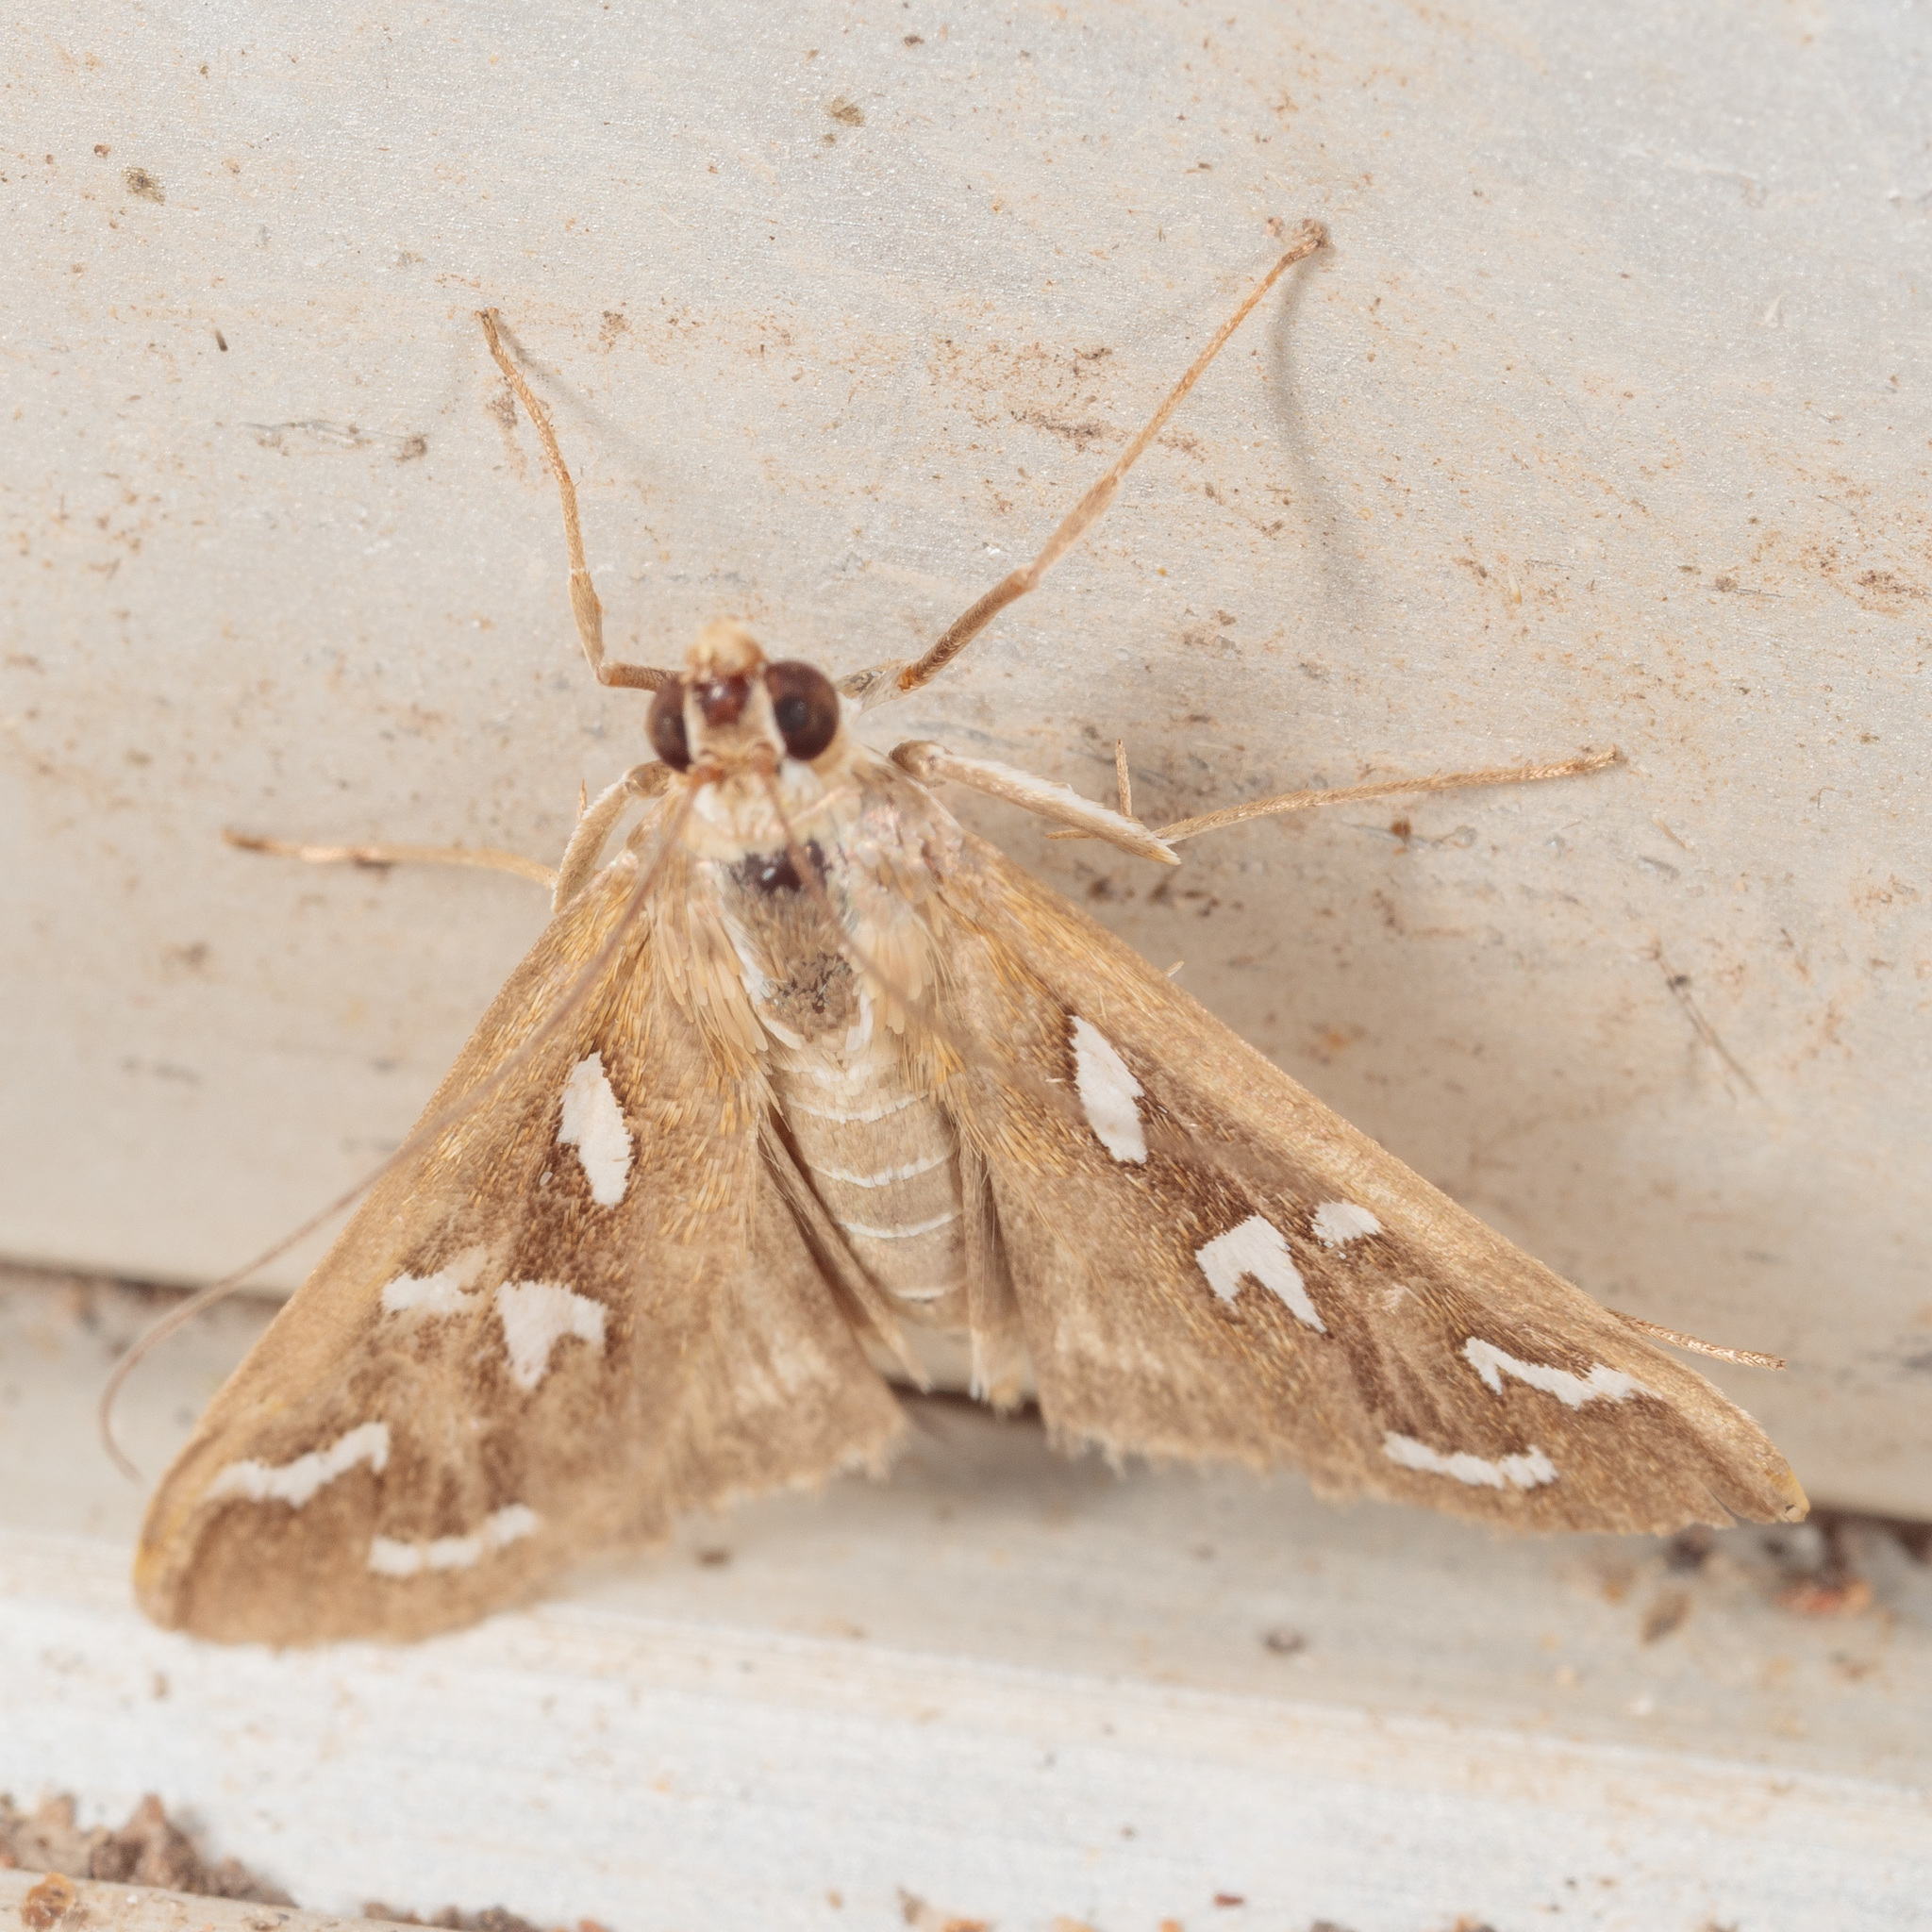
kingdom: Animalia
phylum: Arthropoda
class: Insecta
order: Lepidoptera
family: Crambidae
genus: Diastictis
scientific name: Diastictis fracturalis
